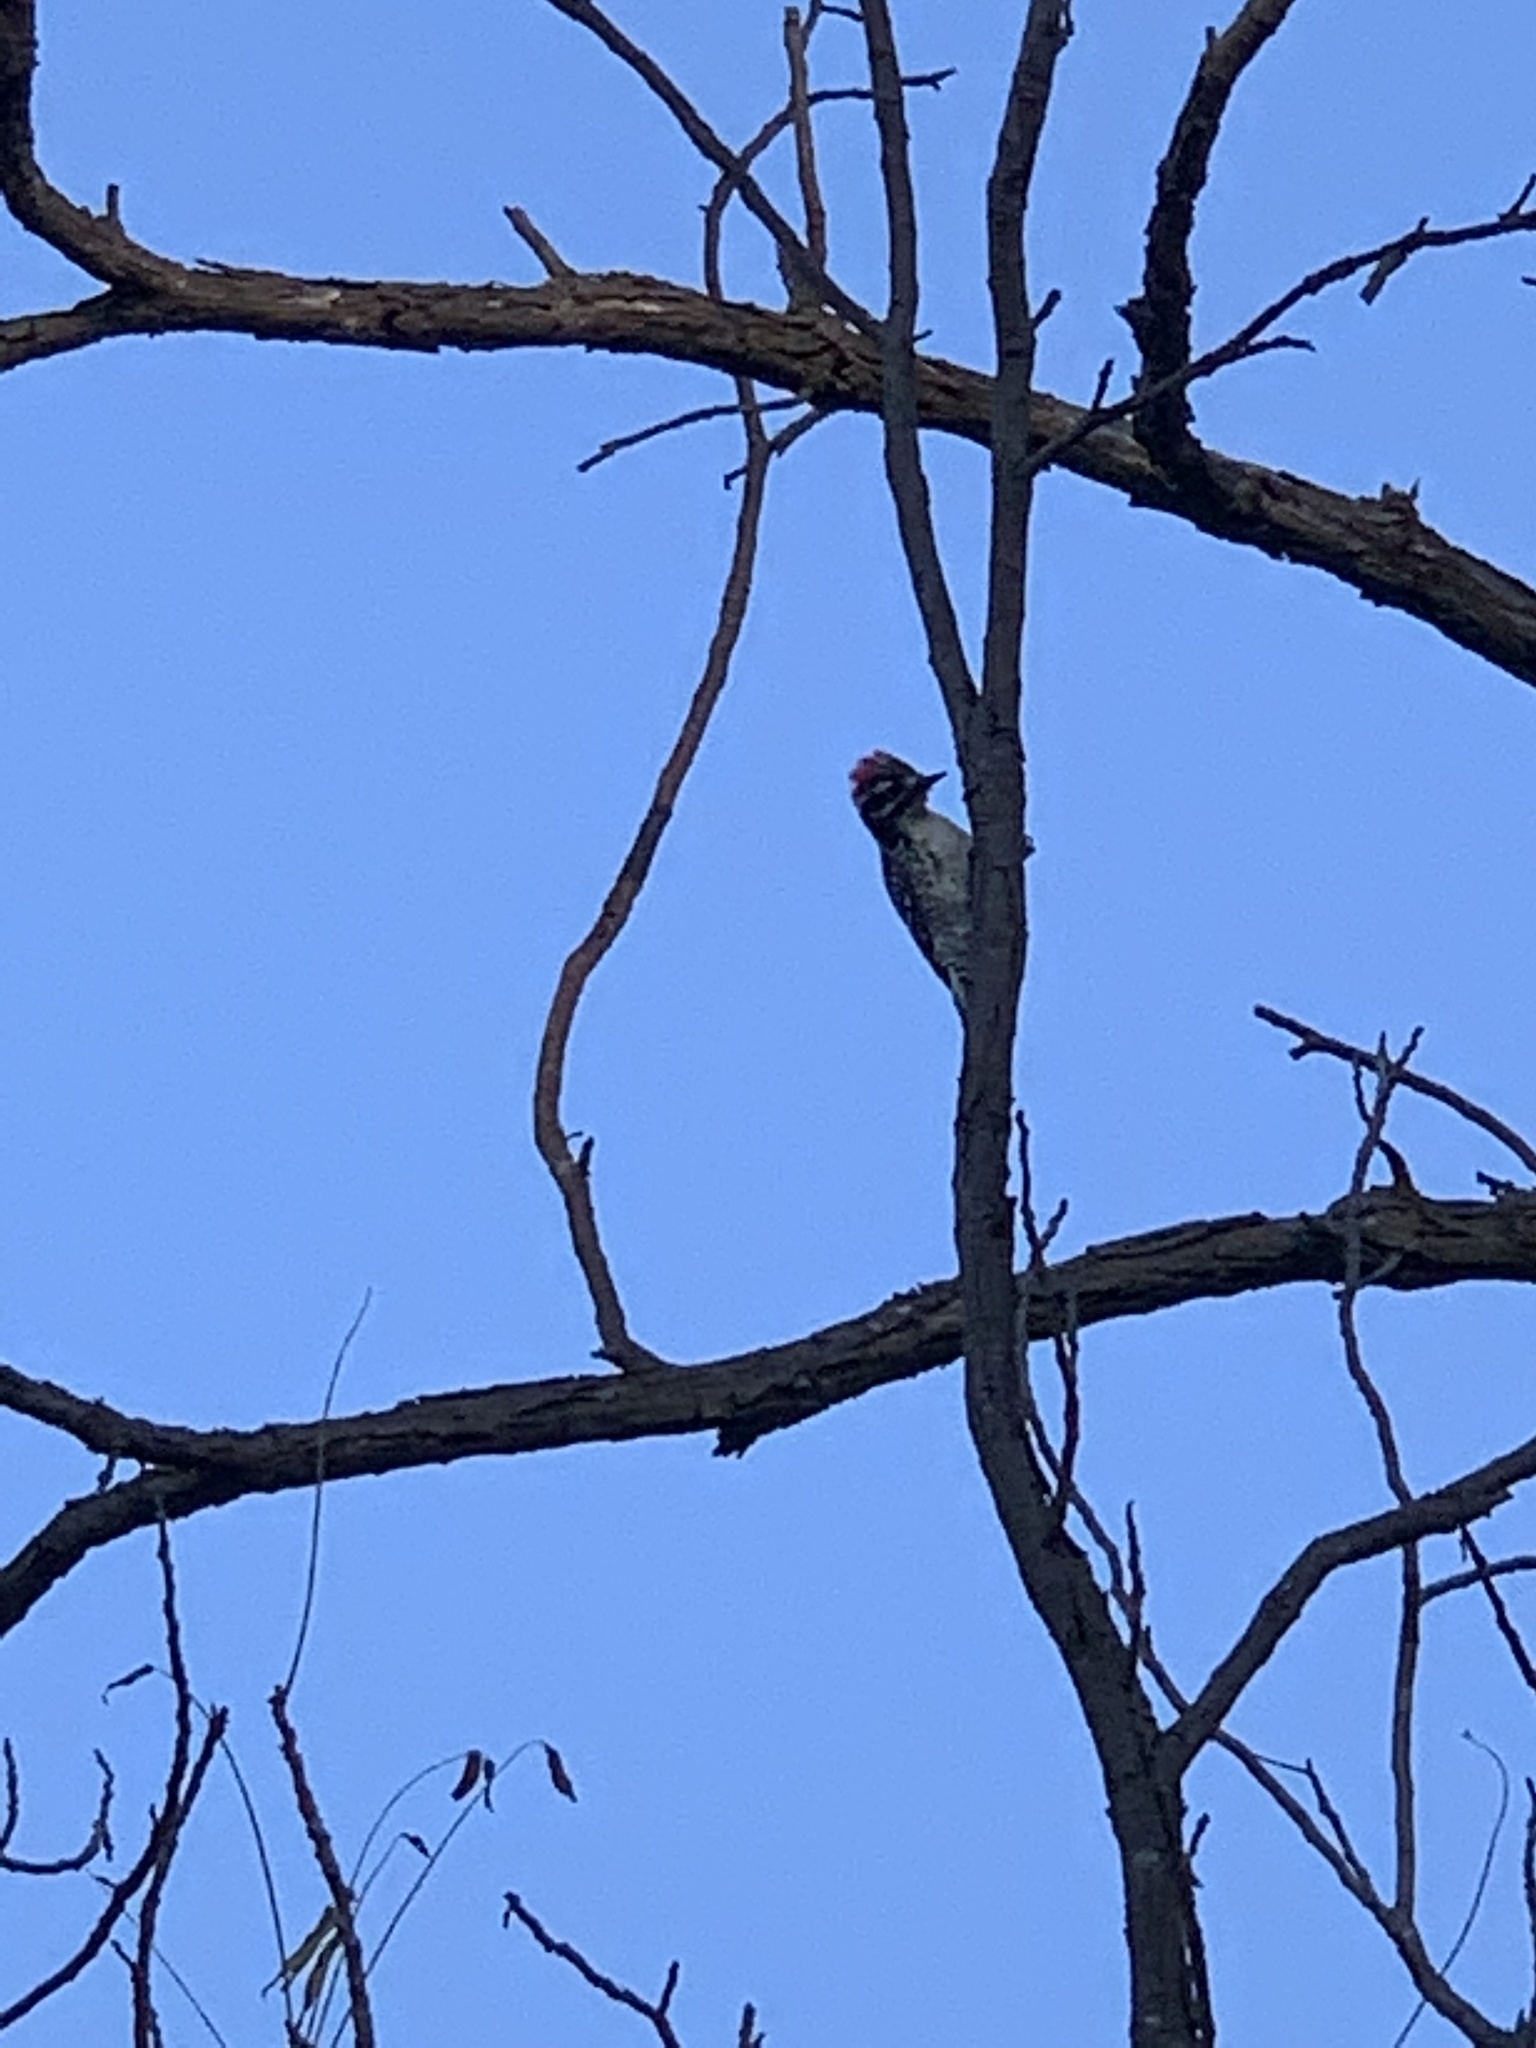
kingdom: Animalia
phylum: Chordata
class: Aves
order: Piciformes
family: Picidae
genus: Dryobates
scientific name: Dryobates nuttallii
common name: Nuttall's woodpecker
